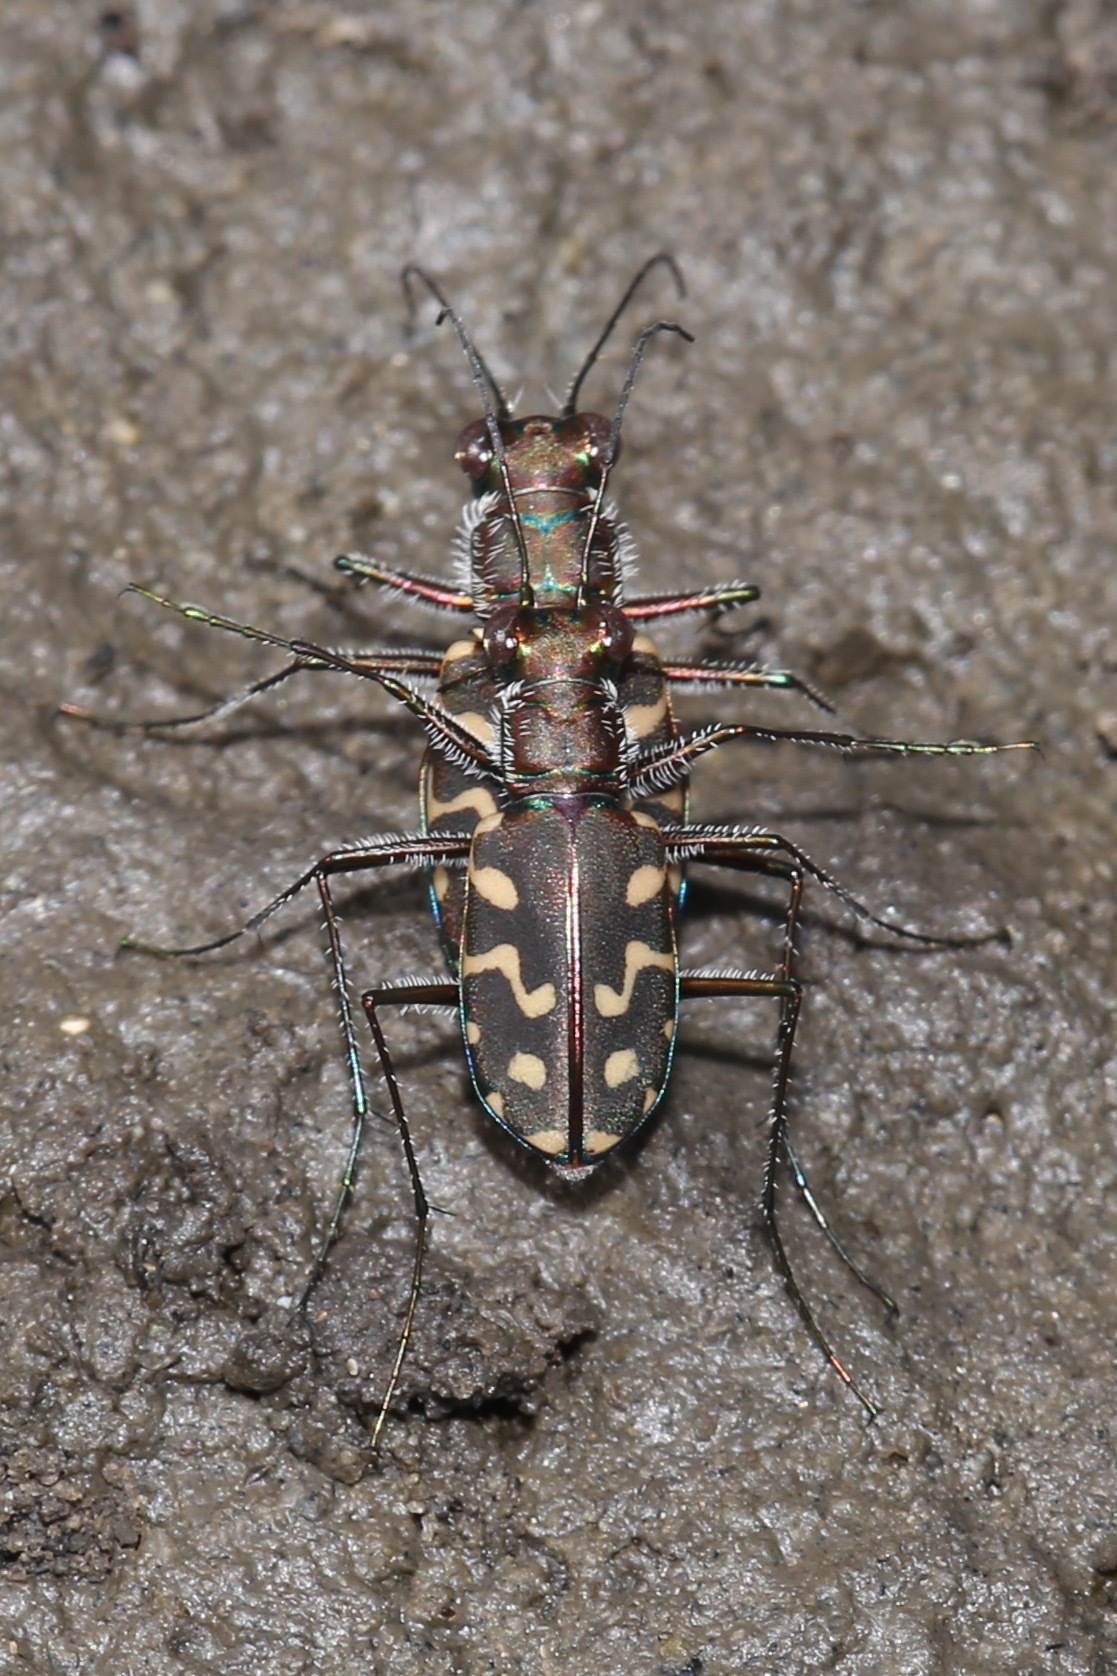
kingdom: Animalia
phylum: Arthropoda
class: Insecta
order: Coleoptera
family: Carabidae
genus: Cicindela
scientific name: Cicindela carthagena
